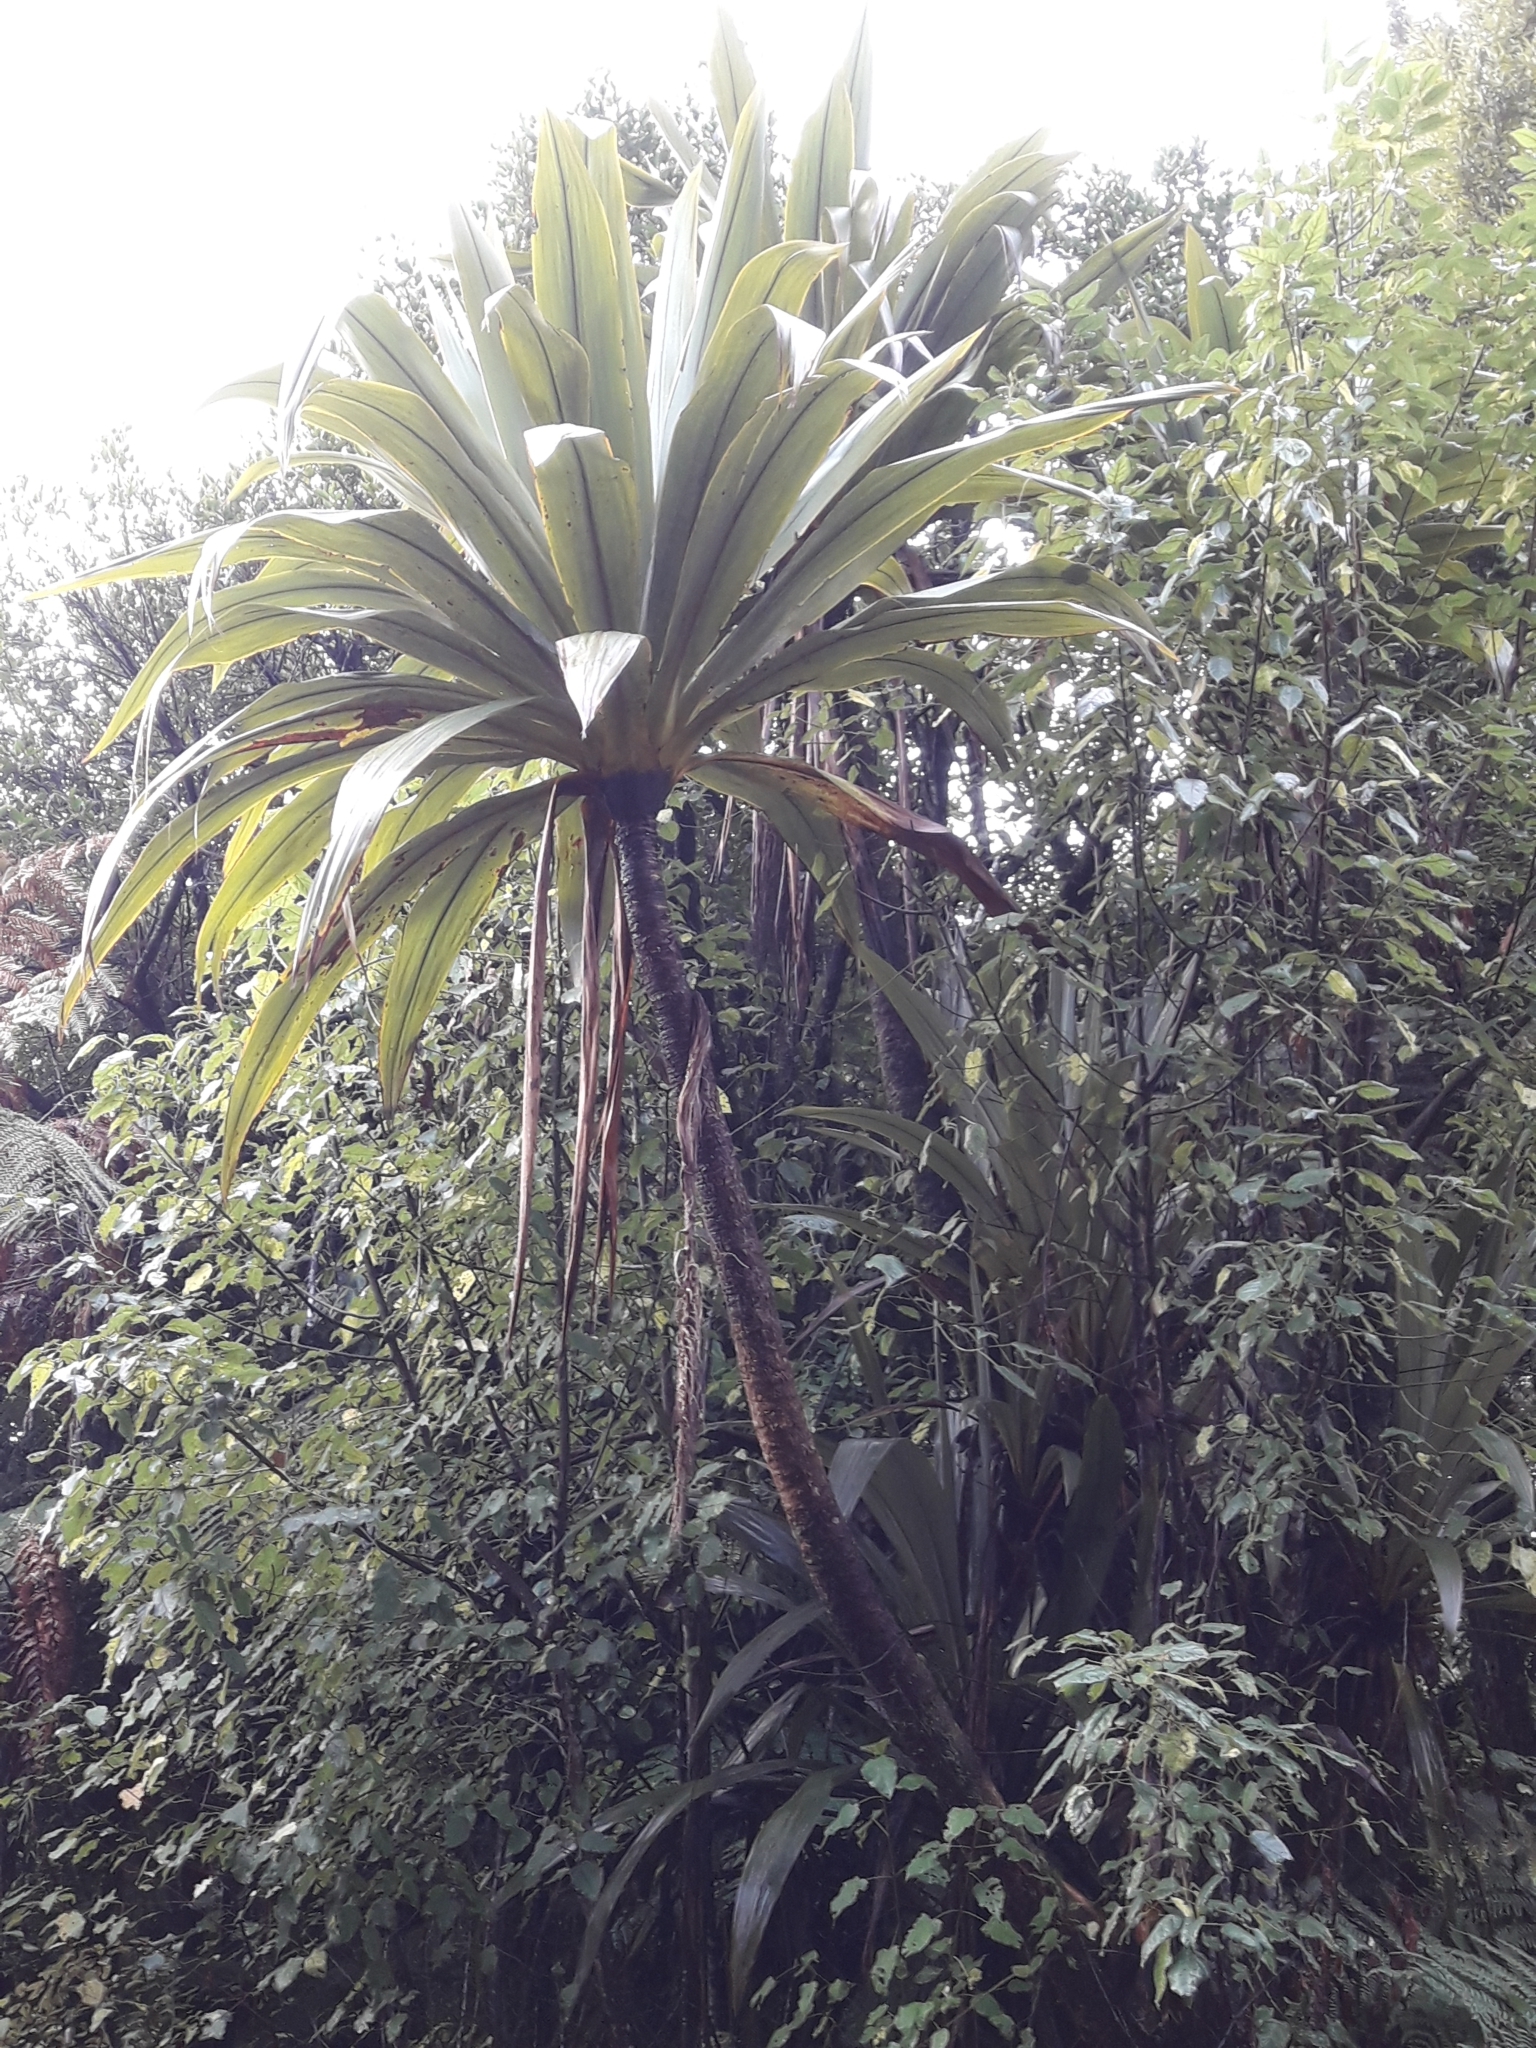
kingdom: Plantae
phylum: Tracheophyta
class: Liliopsida
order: Asparagales
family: Asparagaceae
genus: Cordyline
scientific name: Cordyline indivisa
